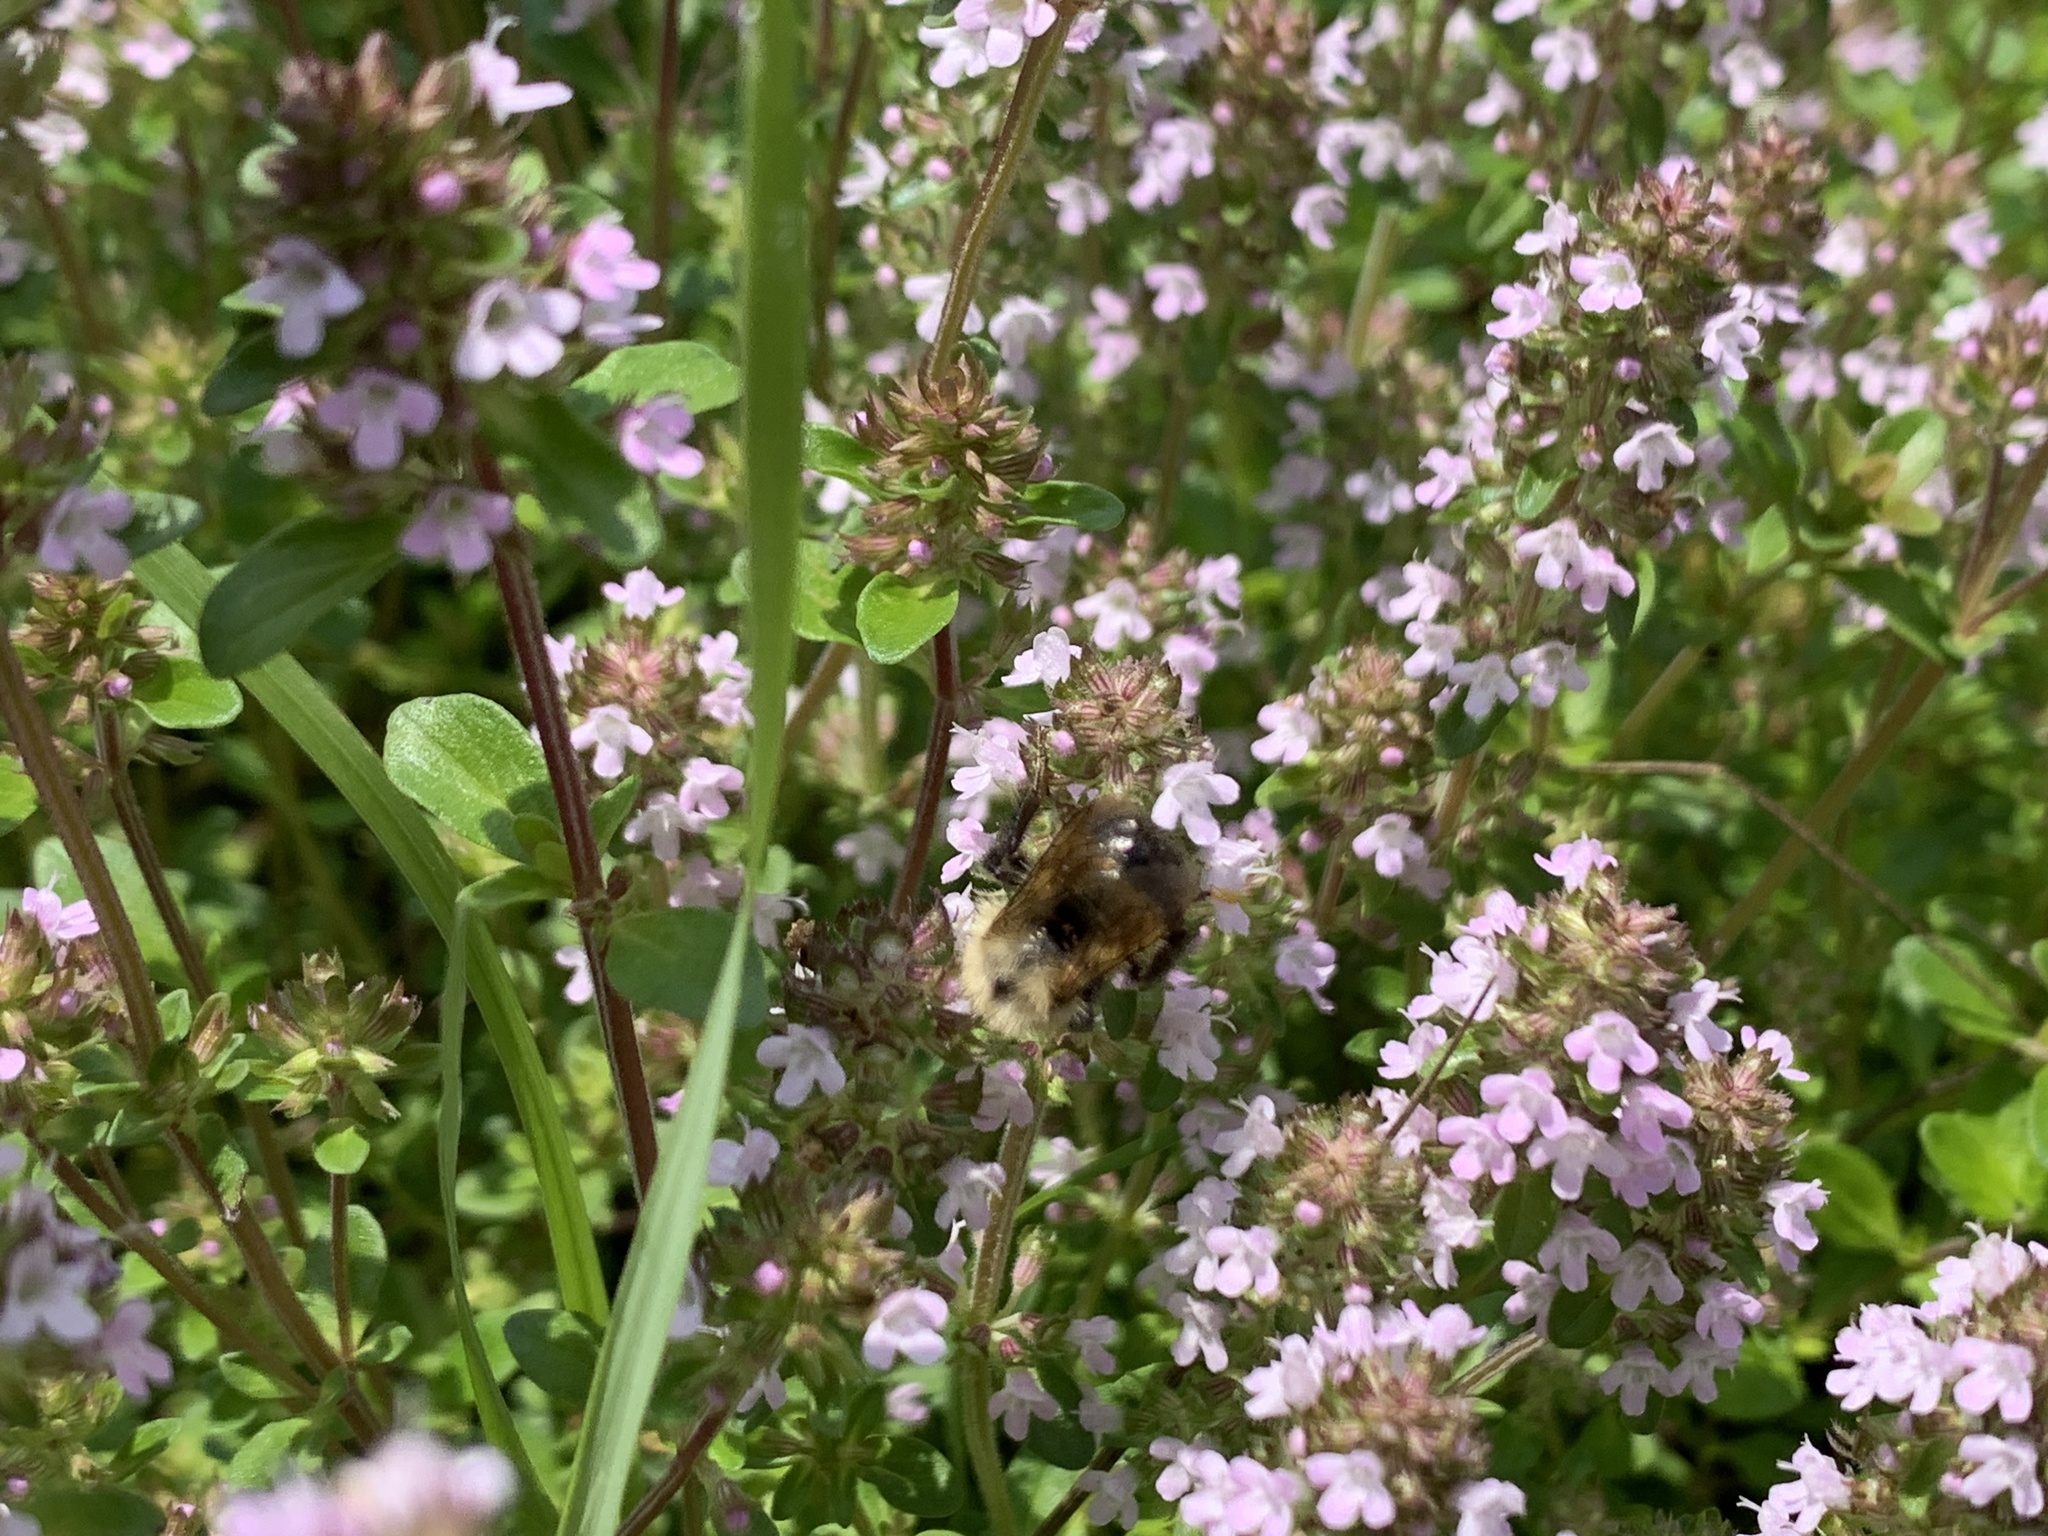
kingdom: Animalia
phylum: Arthropoda
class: Insecta
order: Hymenoptera
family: Apidae
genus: Pyrobombus
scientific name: Pyrobombus
